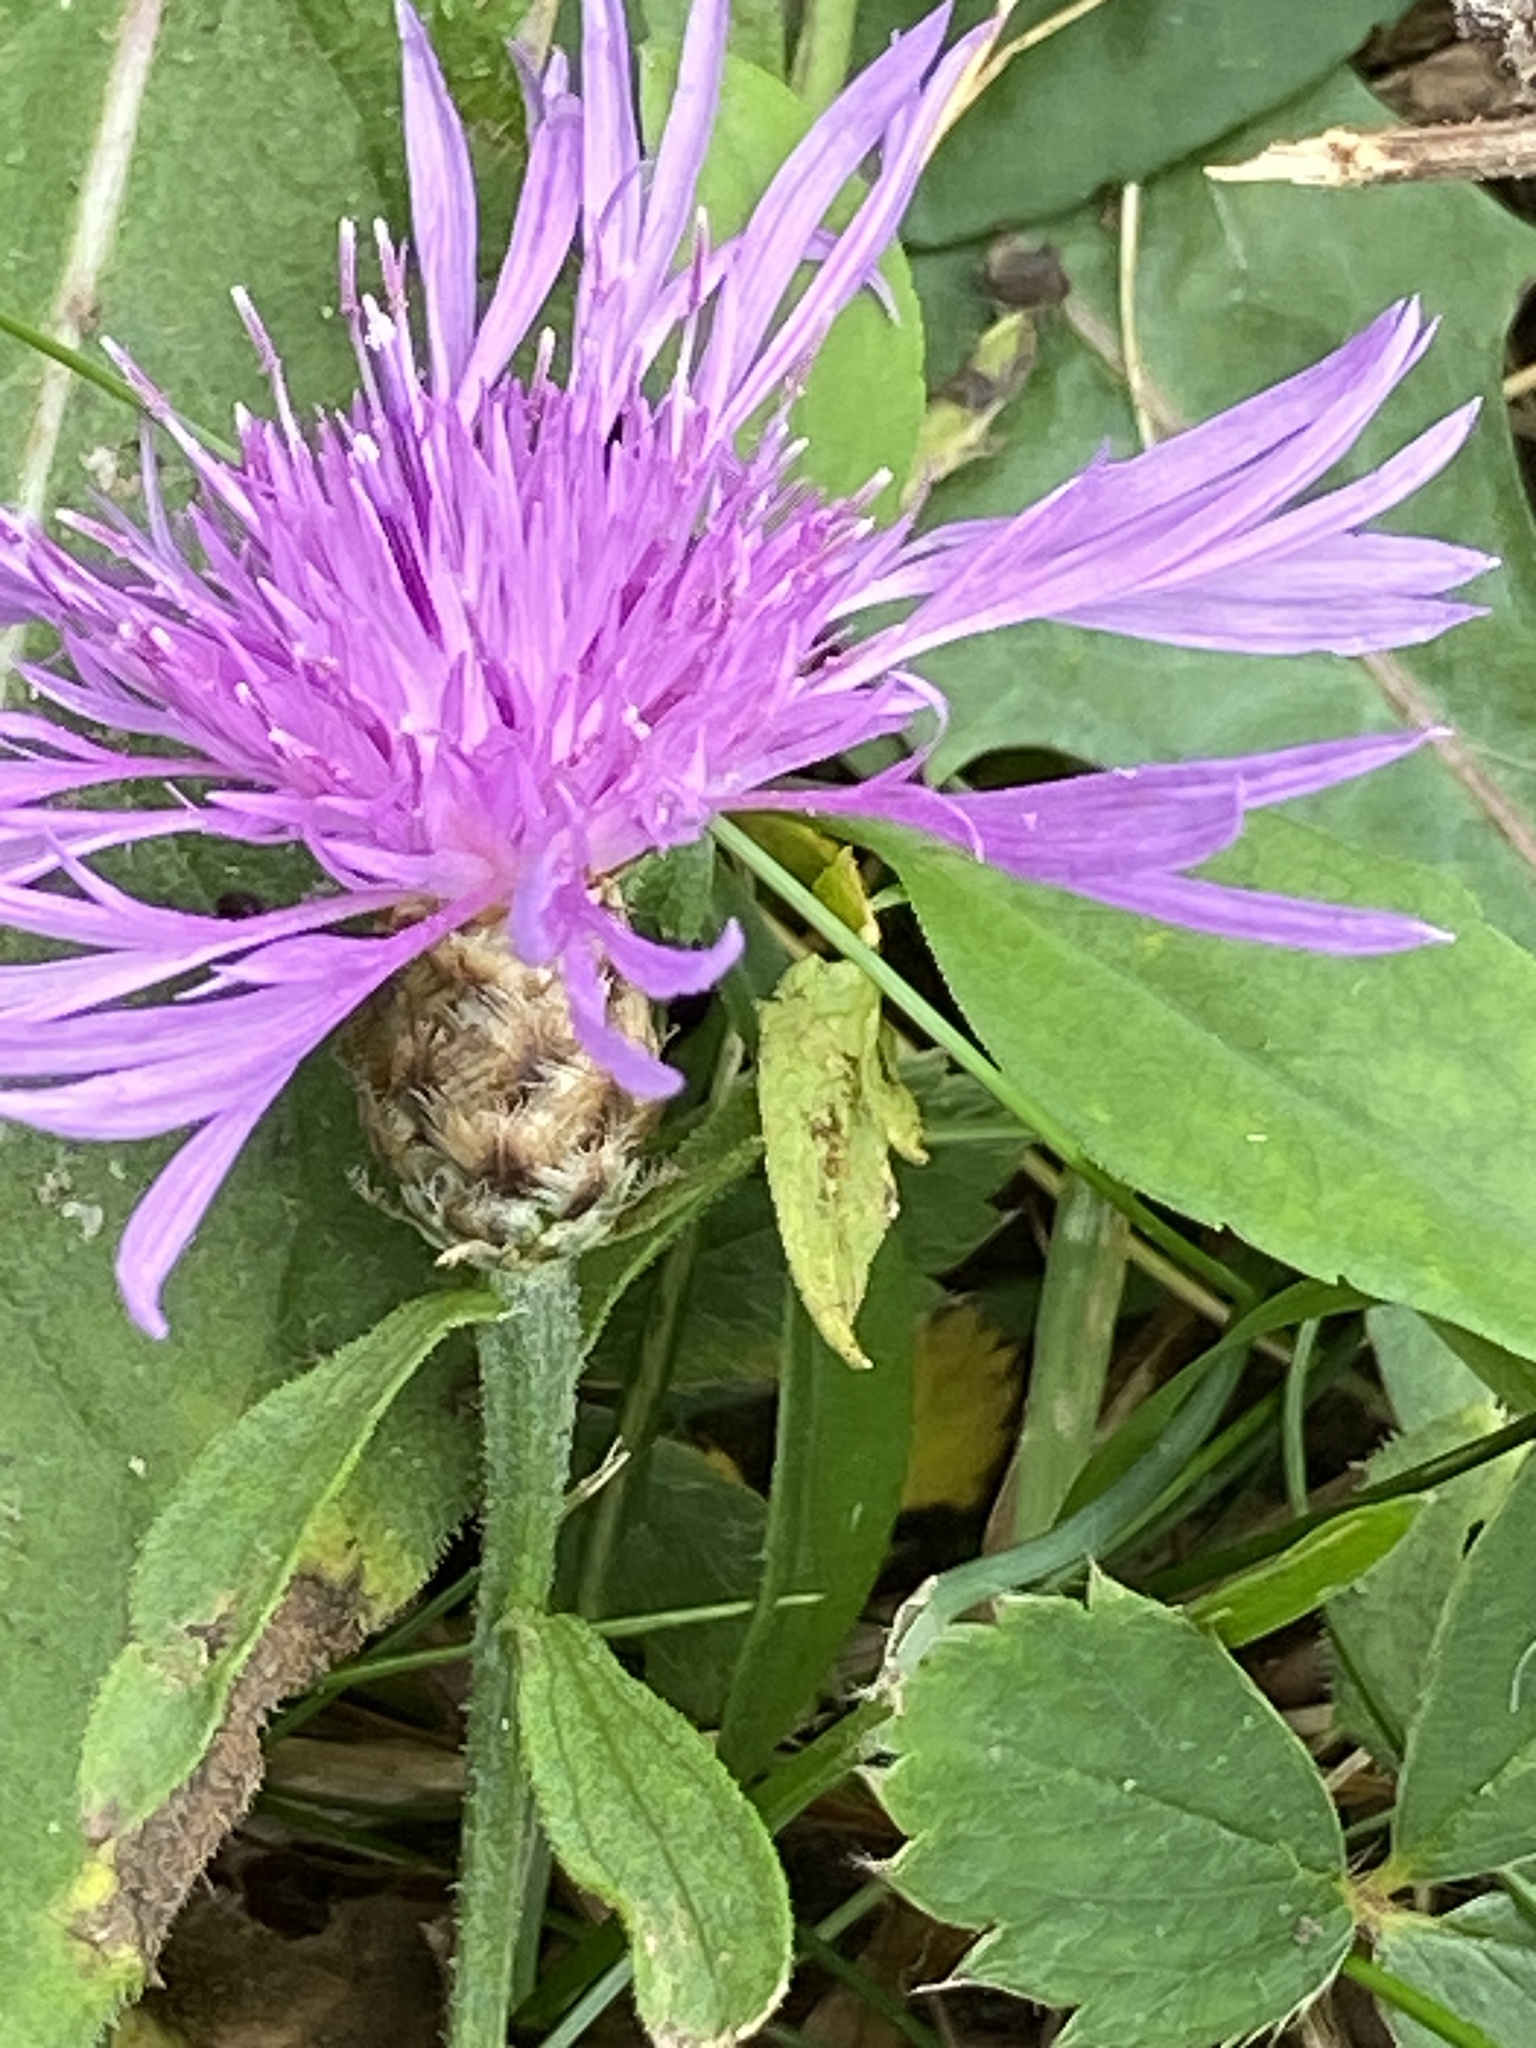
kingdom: Plantae
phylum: Tracheophyta
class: Magnoliopsida
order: Asterales
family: Asteraceae
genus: Centaurea
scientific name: Centaurea moncktonii
